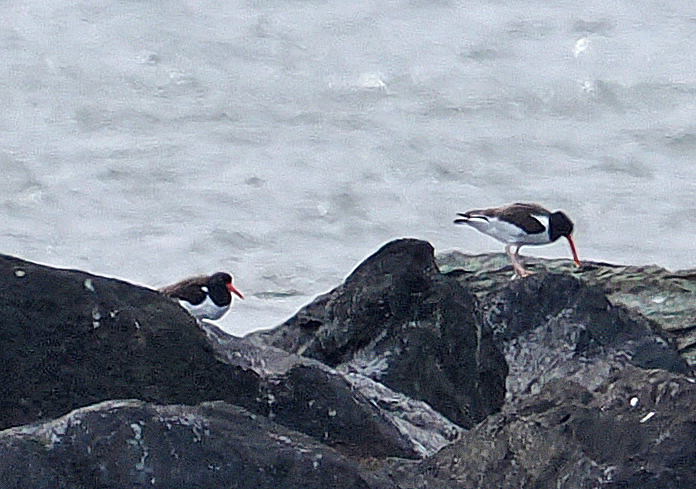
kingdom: Animalia
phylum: Chordata
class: Aves
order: Charadriiformes
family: Haematopodidae
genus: Haematopus
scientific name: Haematopus palliatus
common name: American oystercatcher
